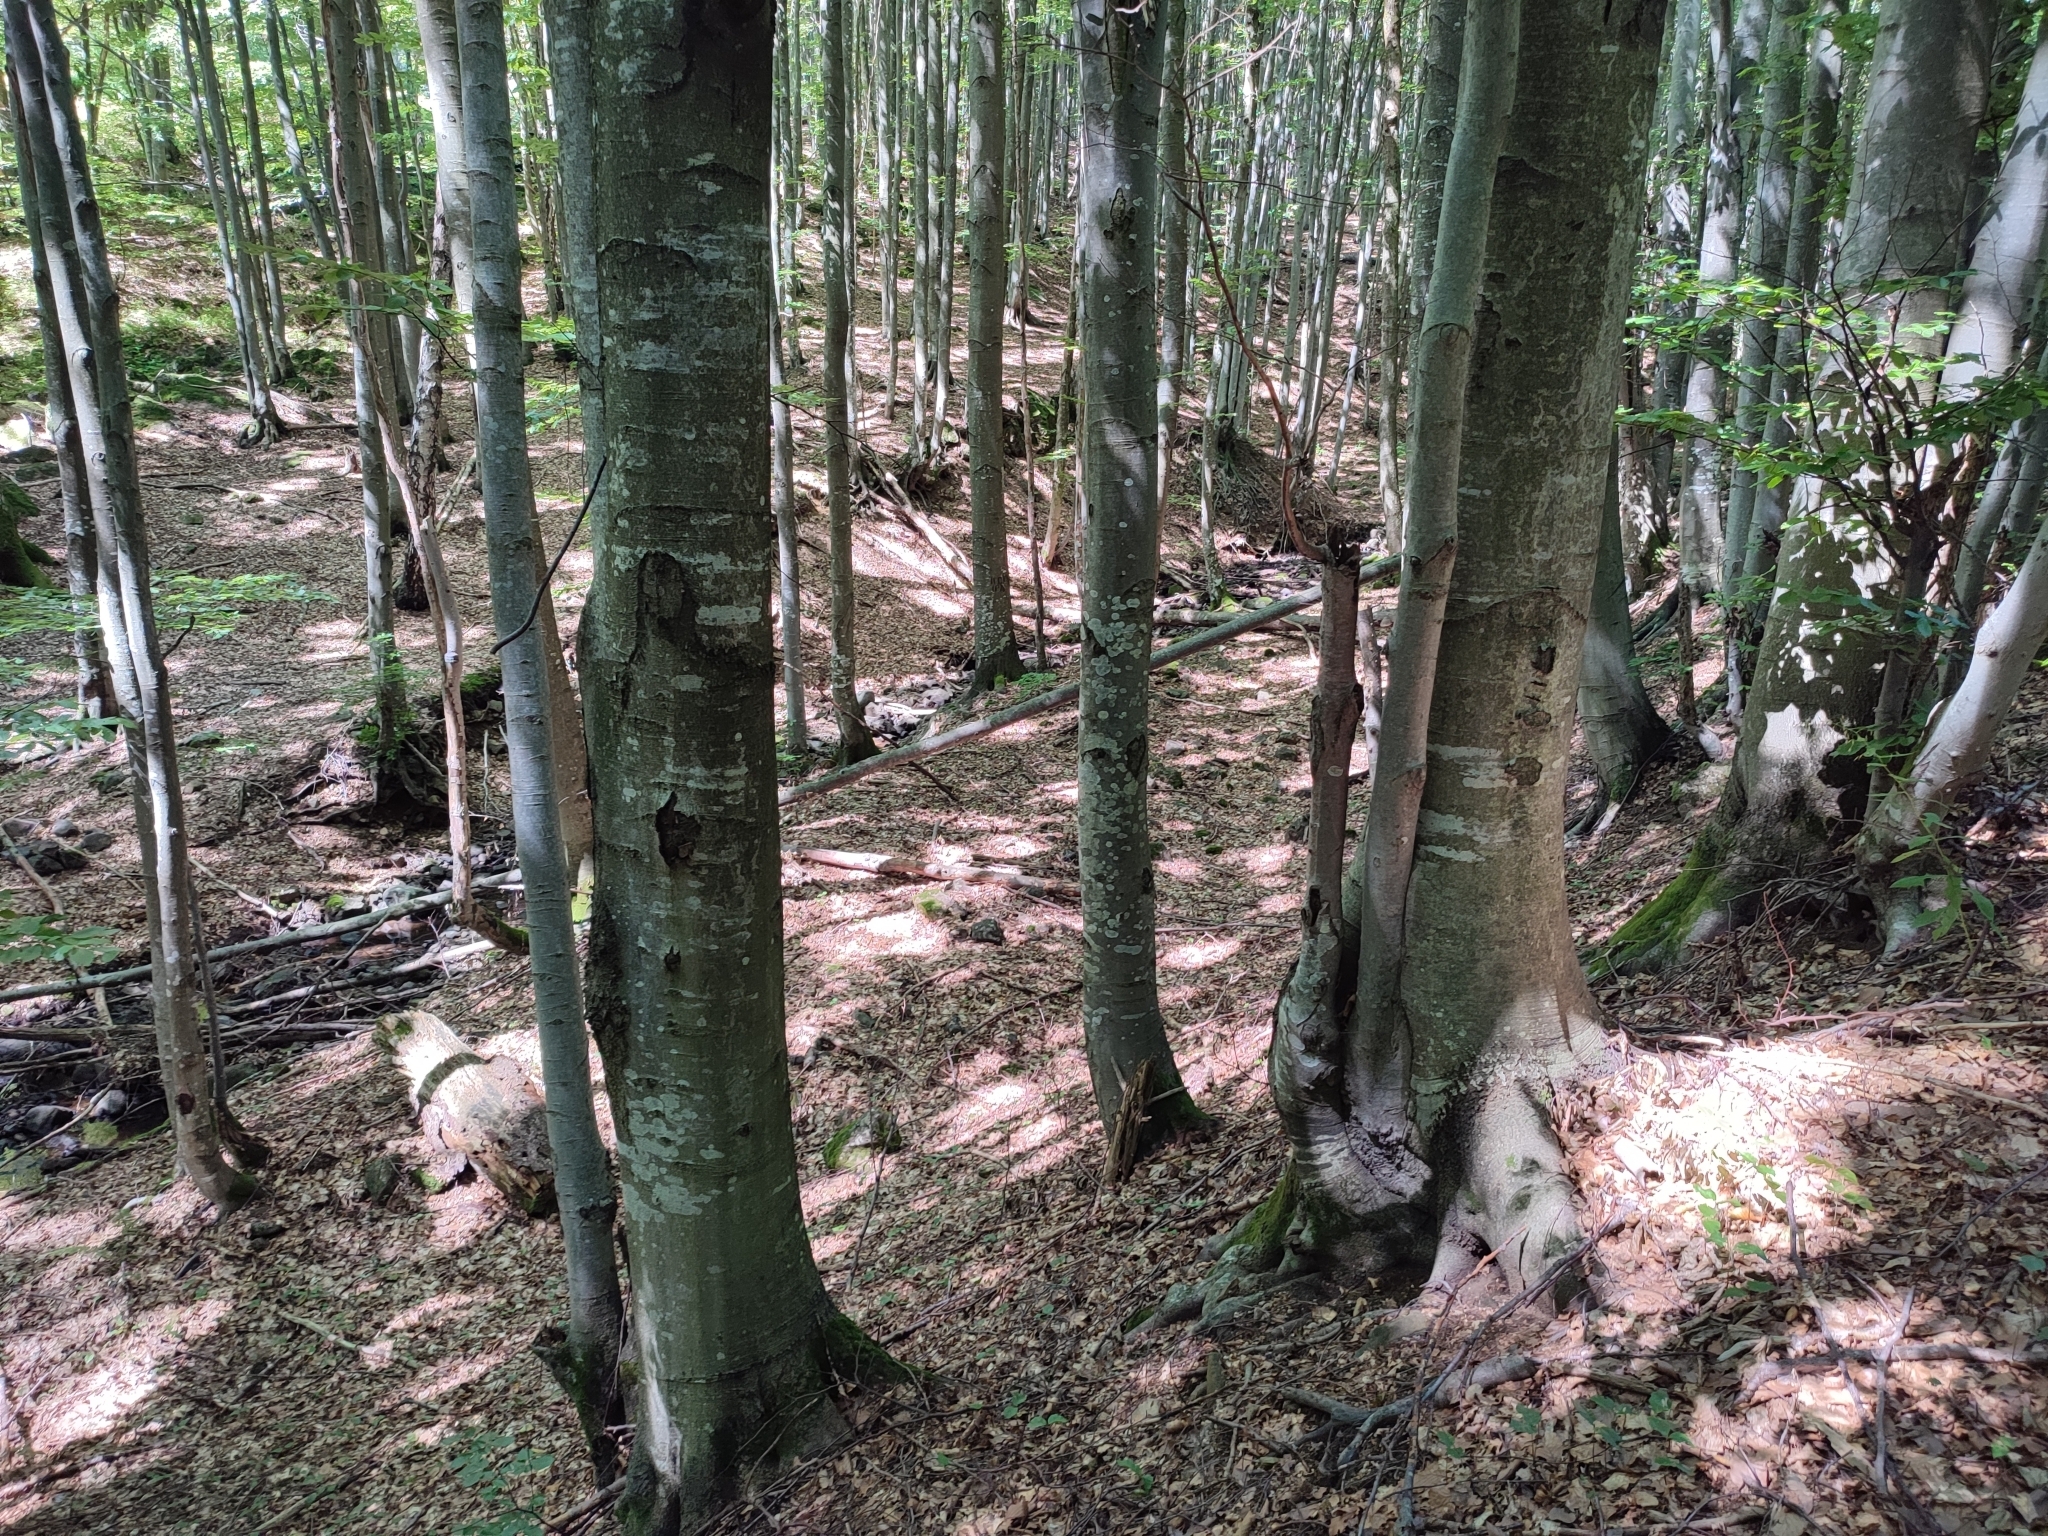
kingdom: Plantae
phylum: Tracheophyta
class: Magnoliopsida
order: Fagales
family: Fagaceae
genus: Fagus
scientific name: Fagus sylvatica
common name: Beech
